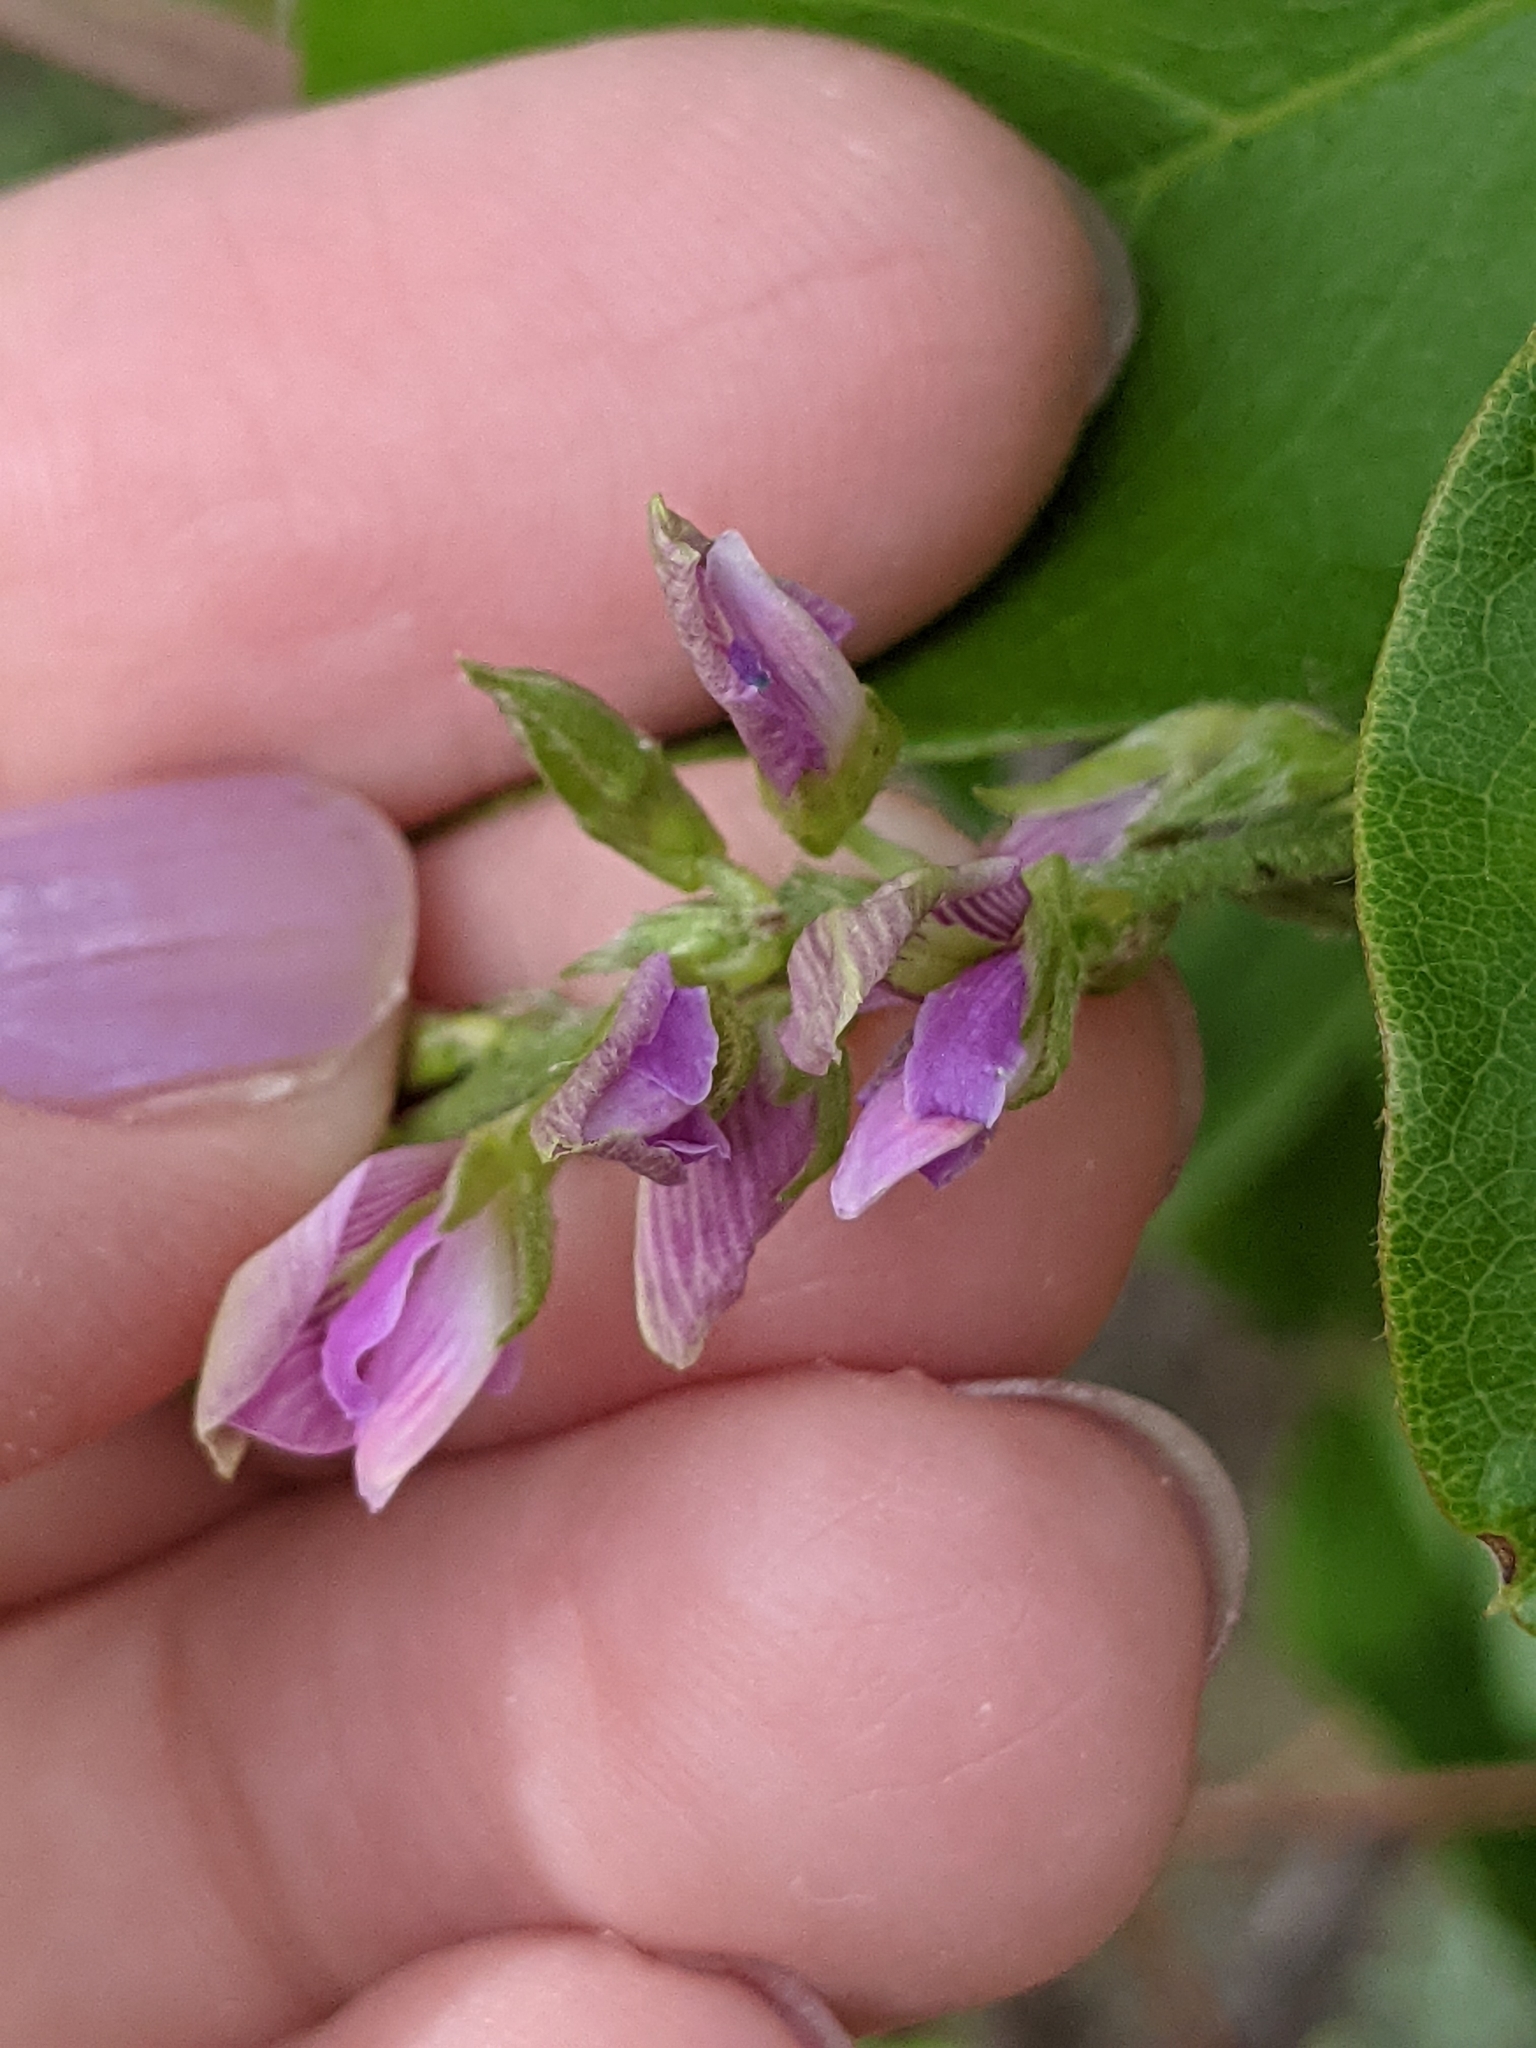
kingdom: Plantae
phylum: Tracheophyta
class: Magnoliopsida
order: Fabales
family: Fabaceae
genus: Galactia
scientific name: Galactia striata
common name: Florida hammock milkpea
